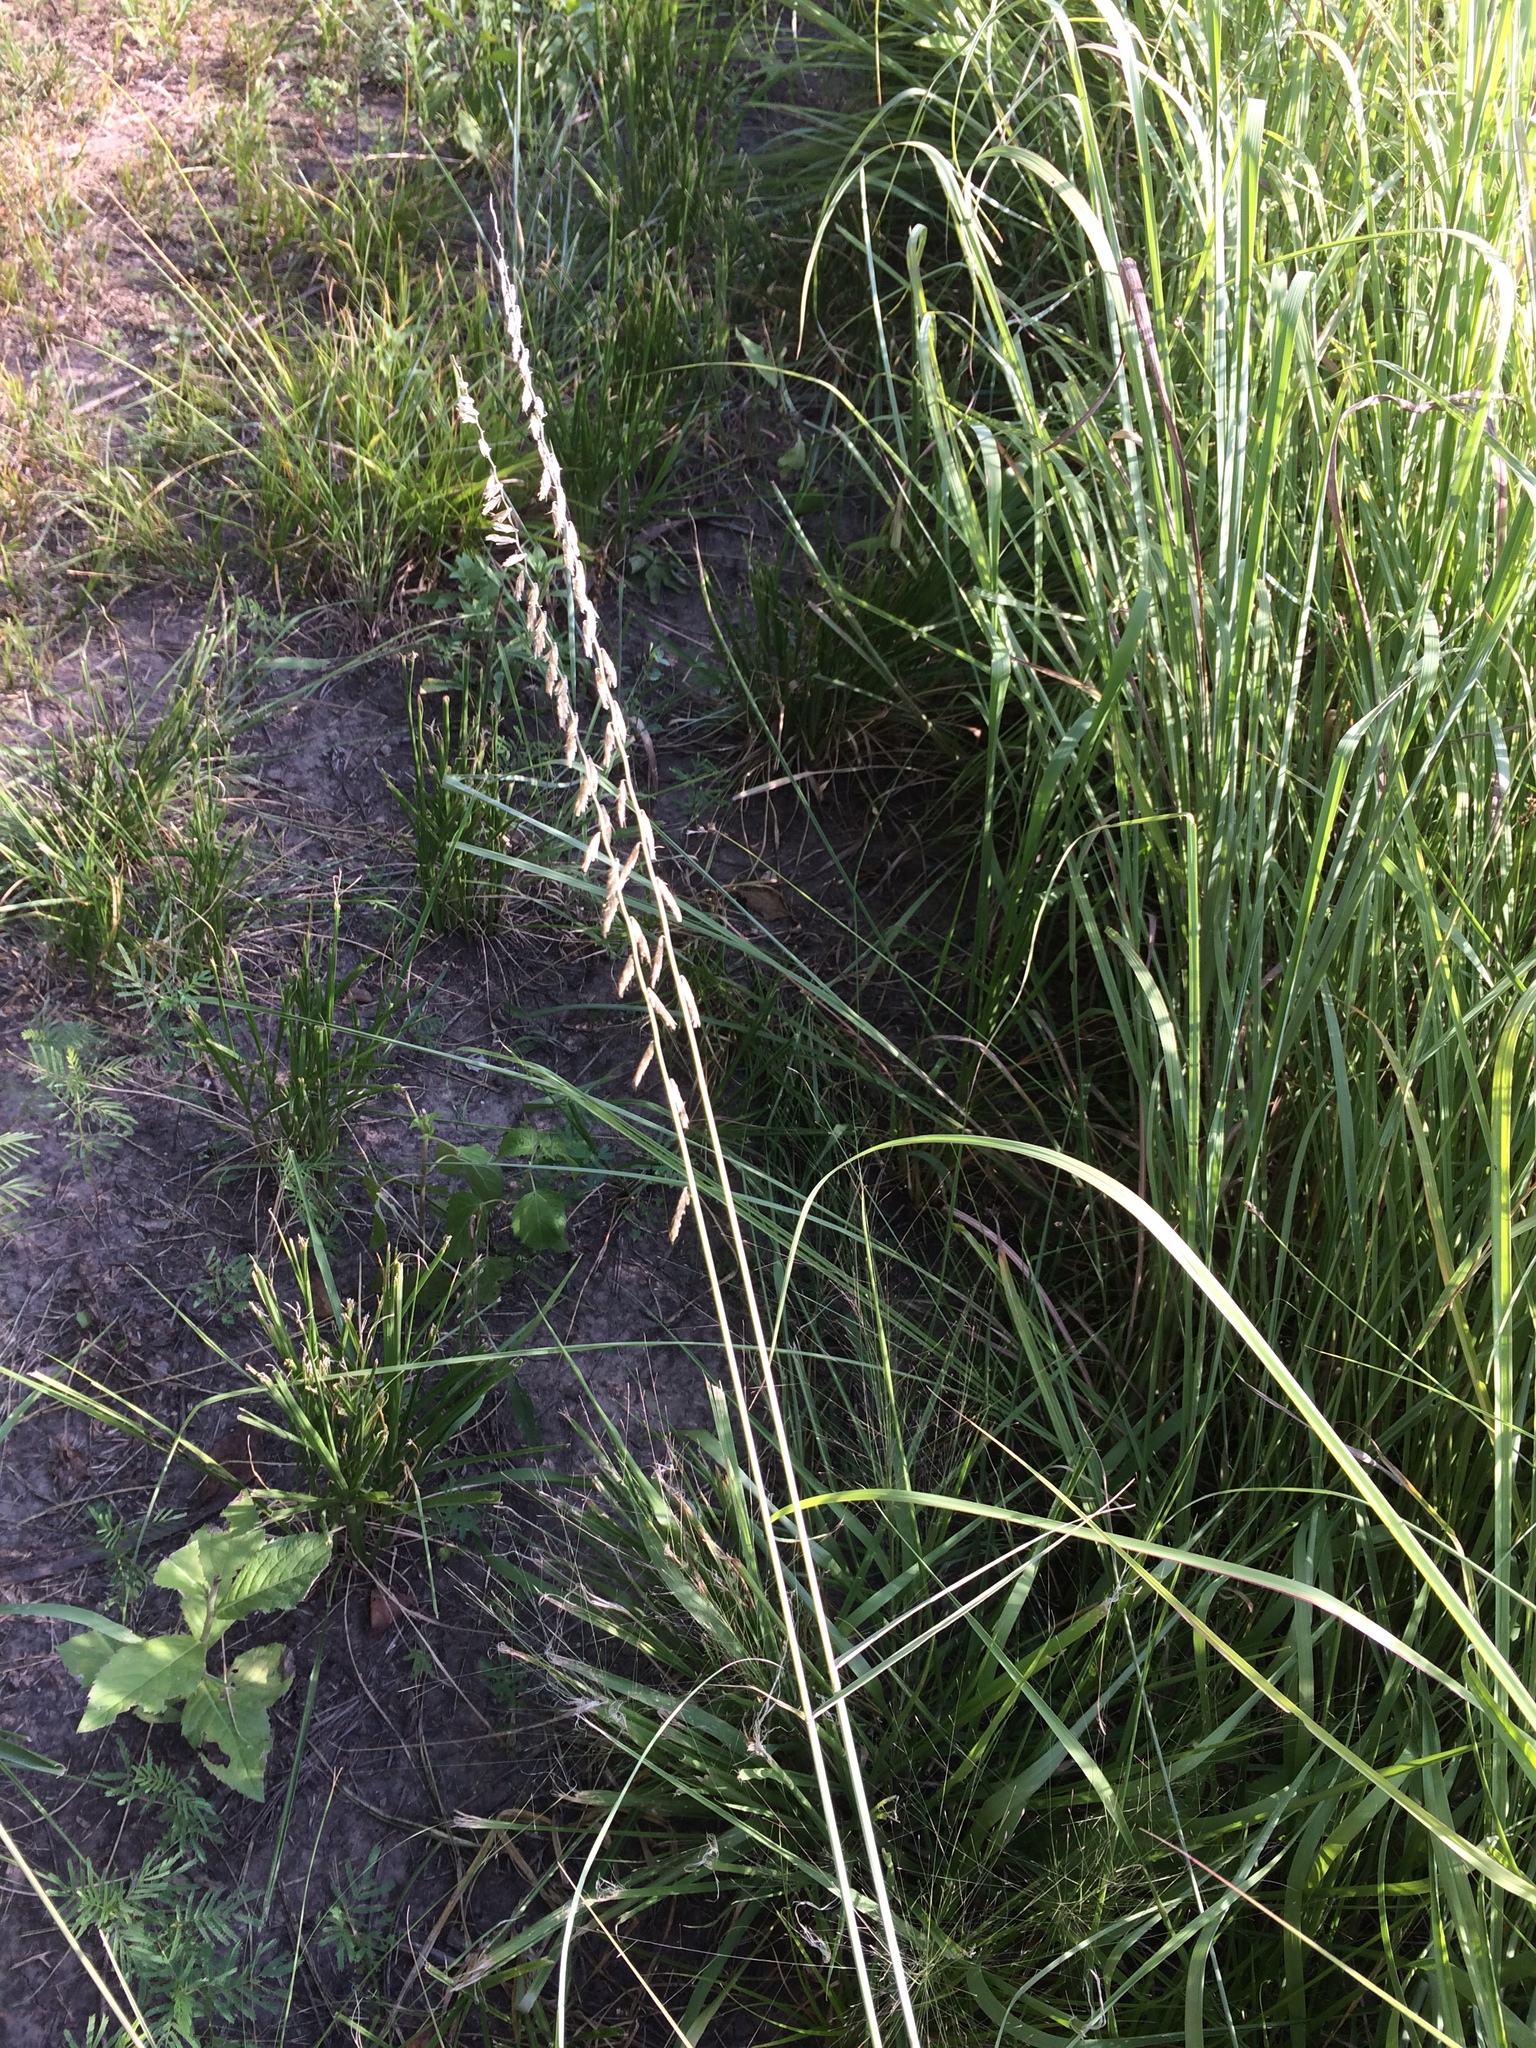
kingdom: Plantae
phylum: Tracheophyta
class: Liliopsida
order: Poales
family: Poaceae
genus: Bouteloua
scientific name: Bouteloua curtipendula
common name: Side-oats grama
